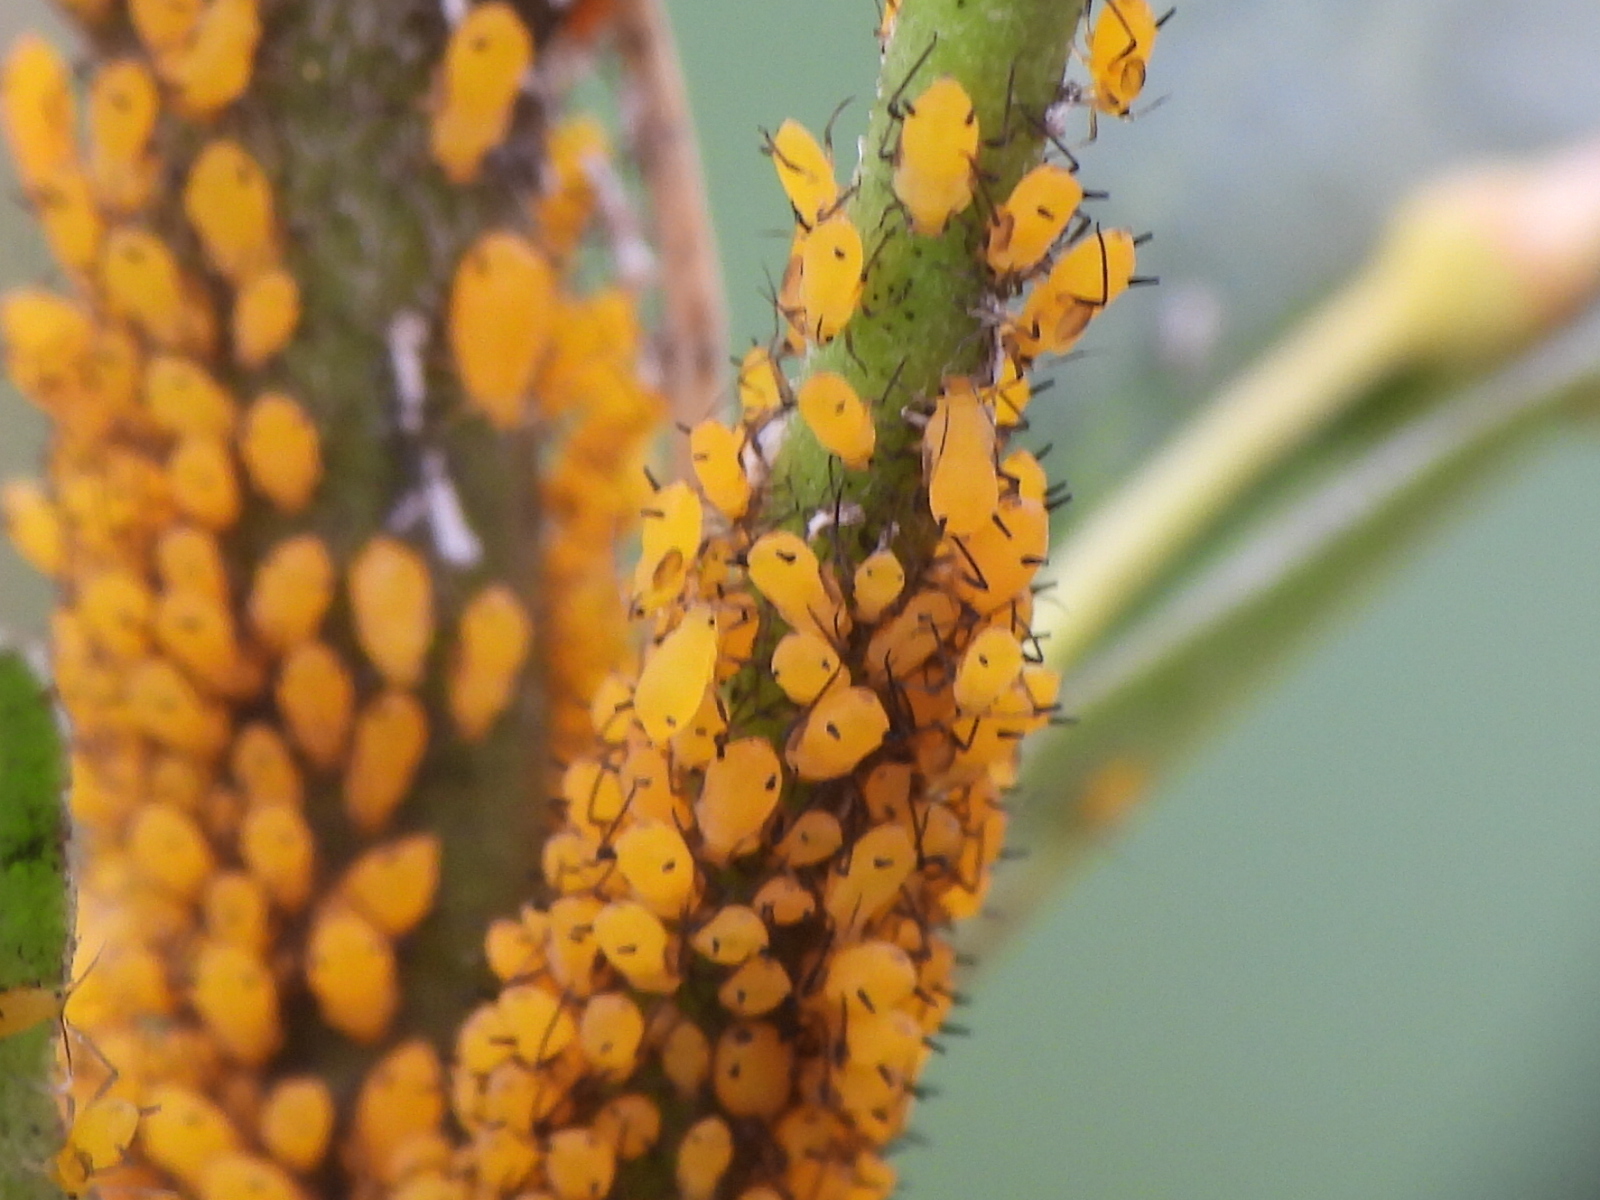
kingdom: Animalia
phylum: Arthropoda
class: Insecta
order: Hemiptera
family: Aphididae
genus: Aphis
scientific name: Aphis nerii
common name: Oleander aphid
